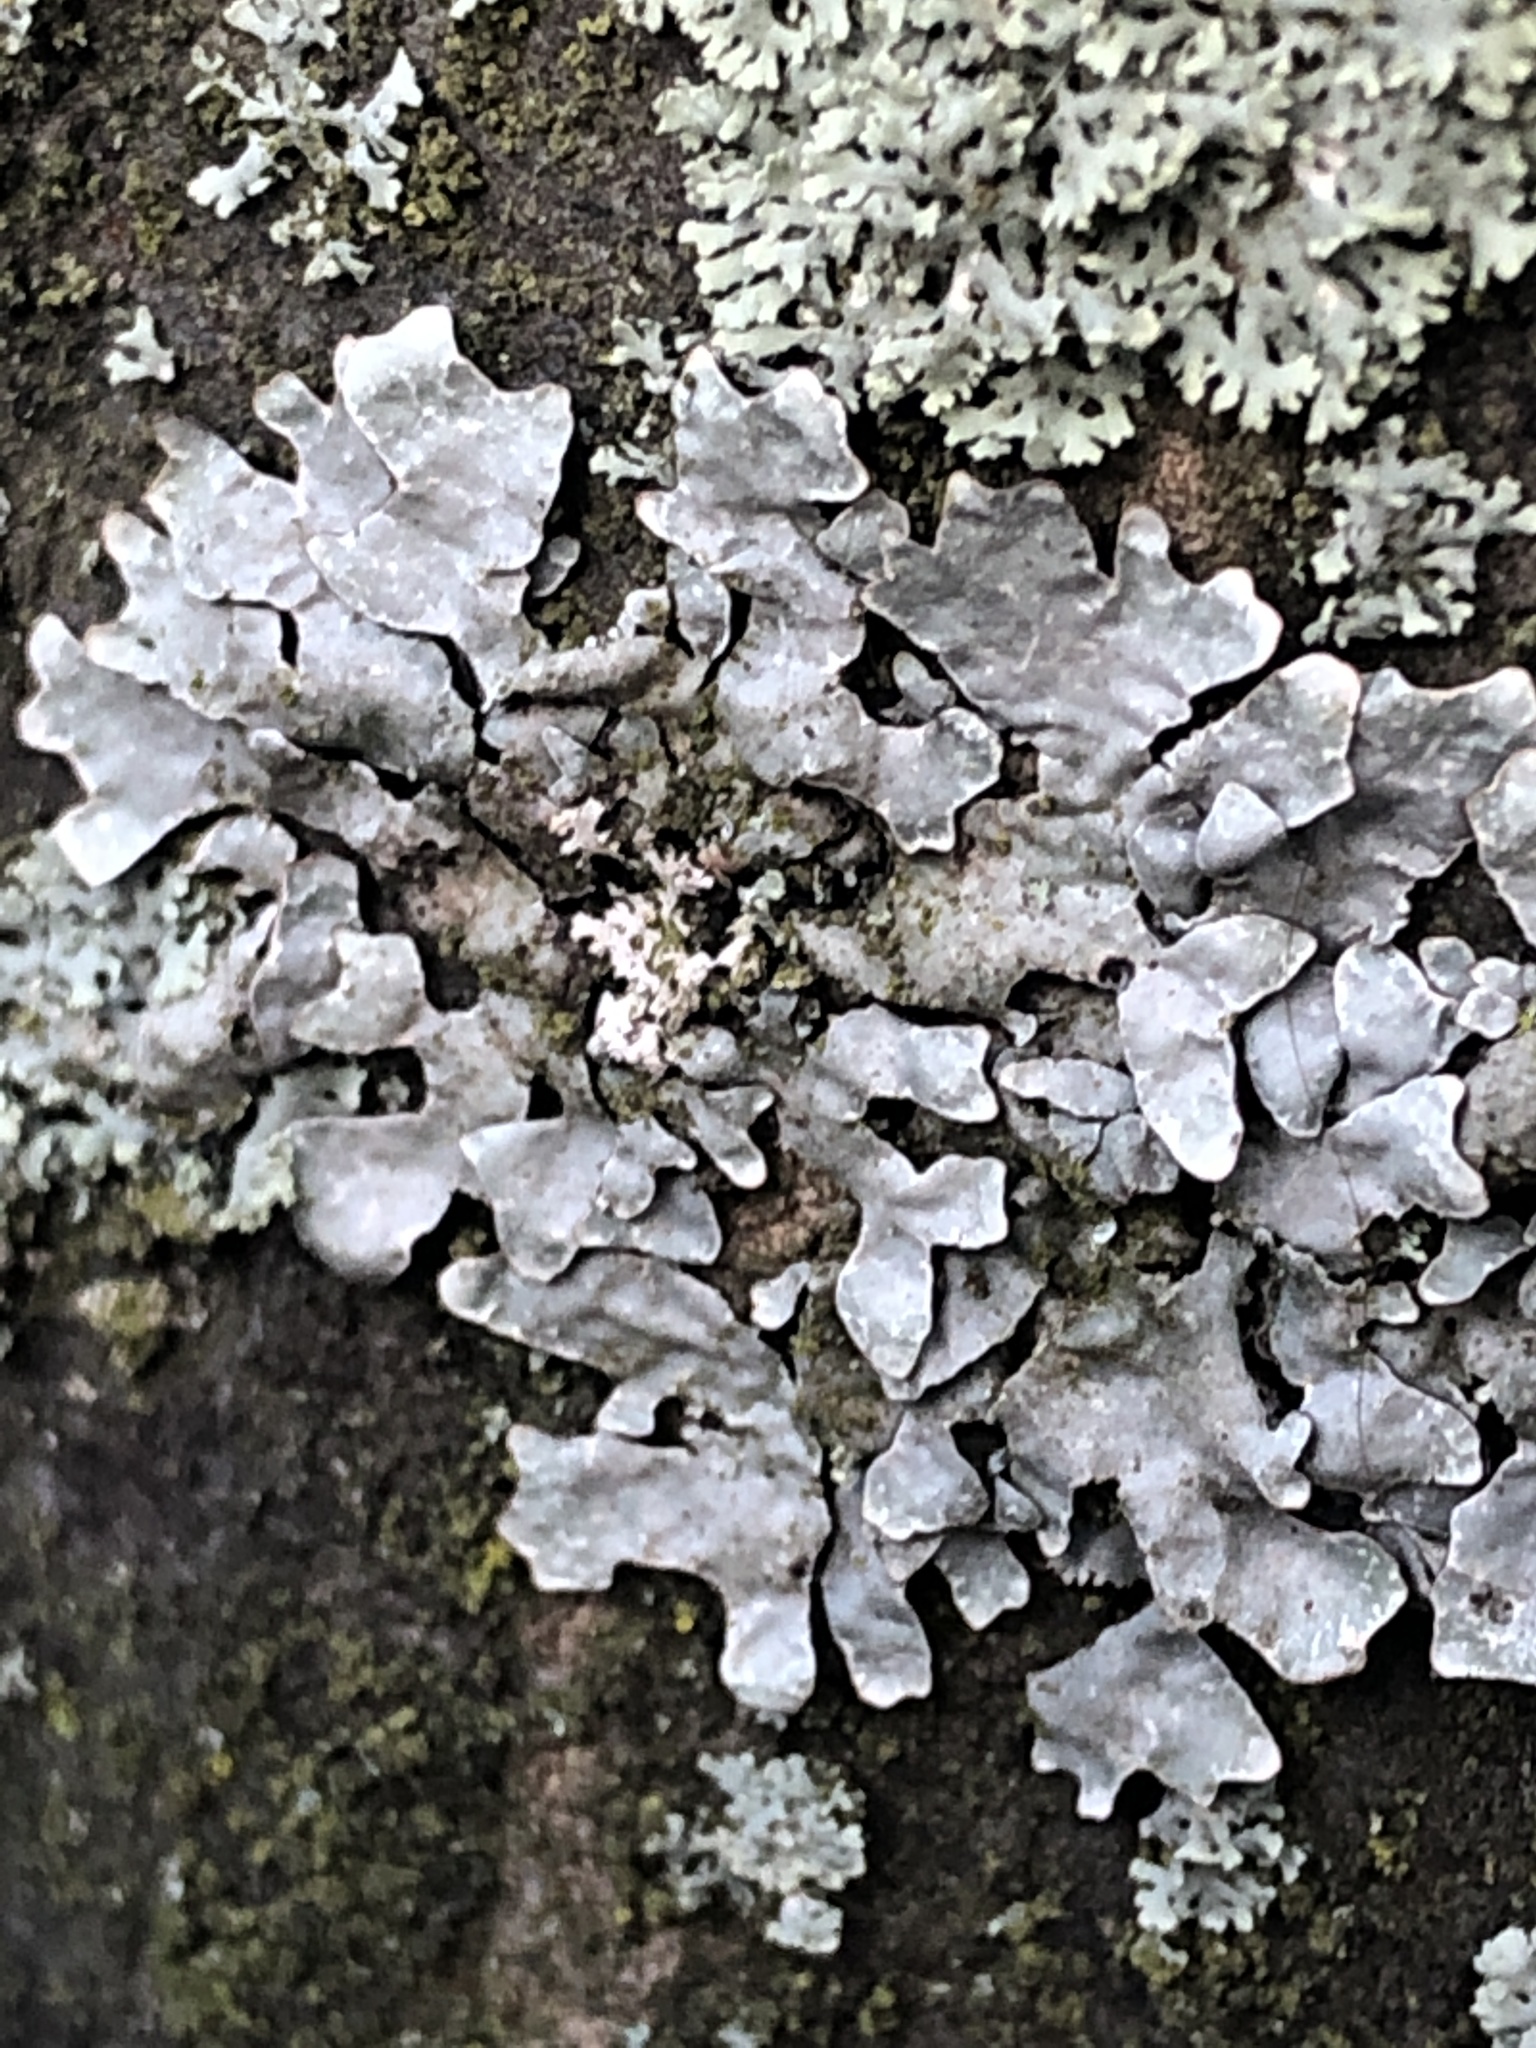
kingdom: Fungi
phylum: Ascomycota
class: Lecanoromycetes
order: Lecanorales
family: Parmeliaceae
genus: Parmelia
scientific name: Parmelia sulcata
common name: Netted shield lichen
